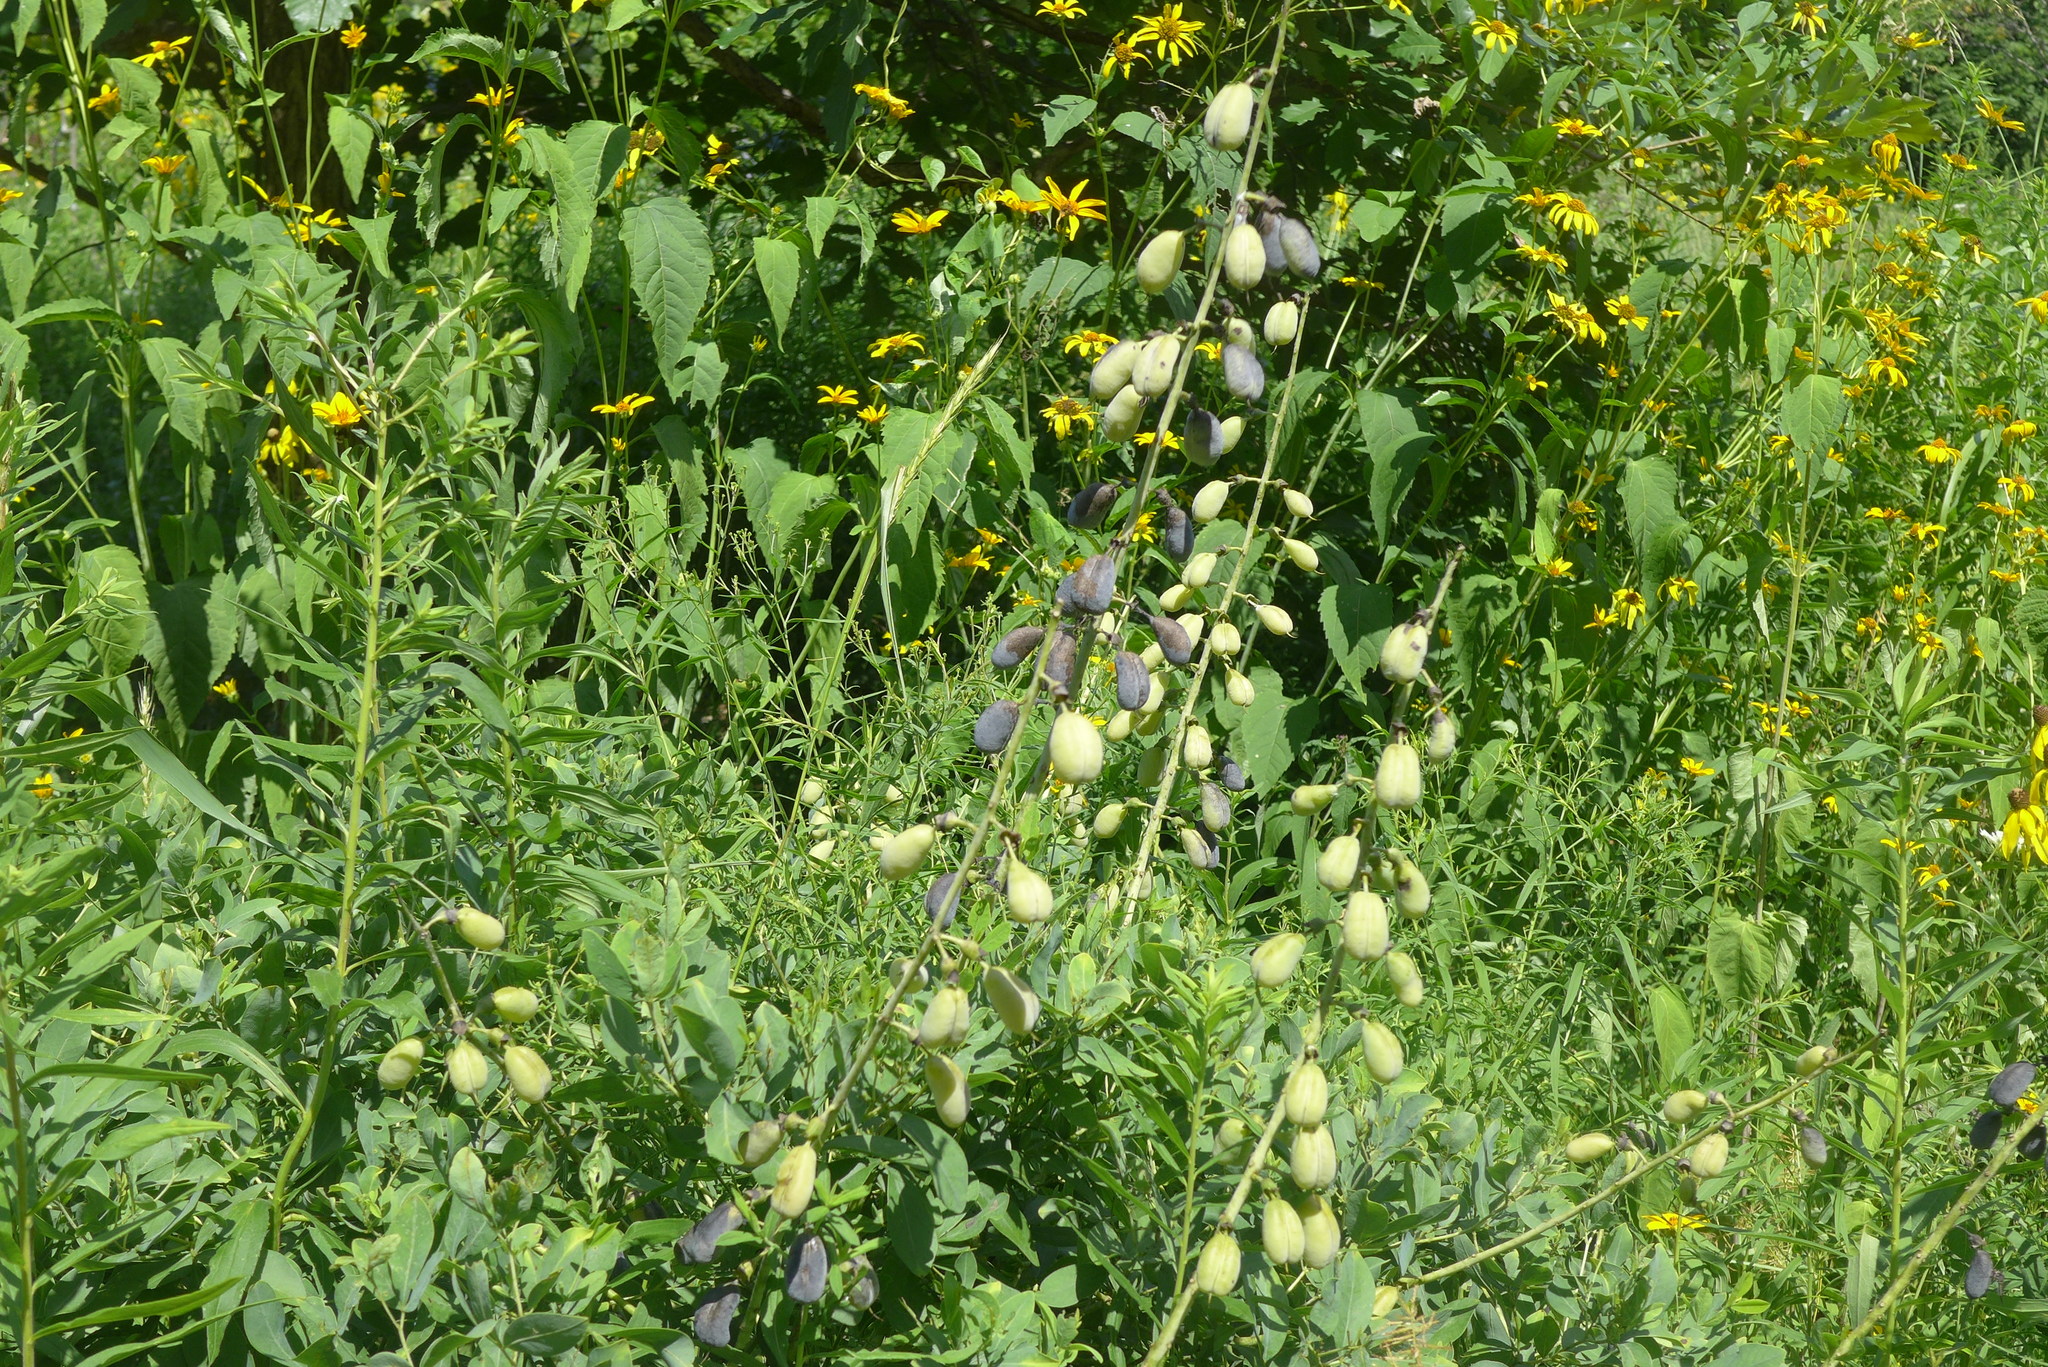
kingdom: Plantae
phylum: Tracheophyta
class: Magnoliopsida
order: Fabales
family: Fabaceae
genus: Baptisia
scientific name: Baptisia alba
